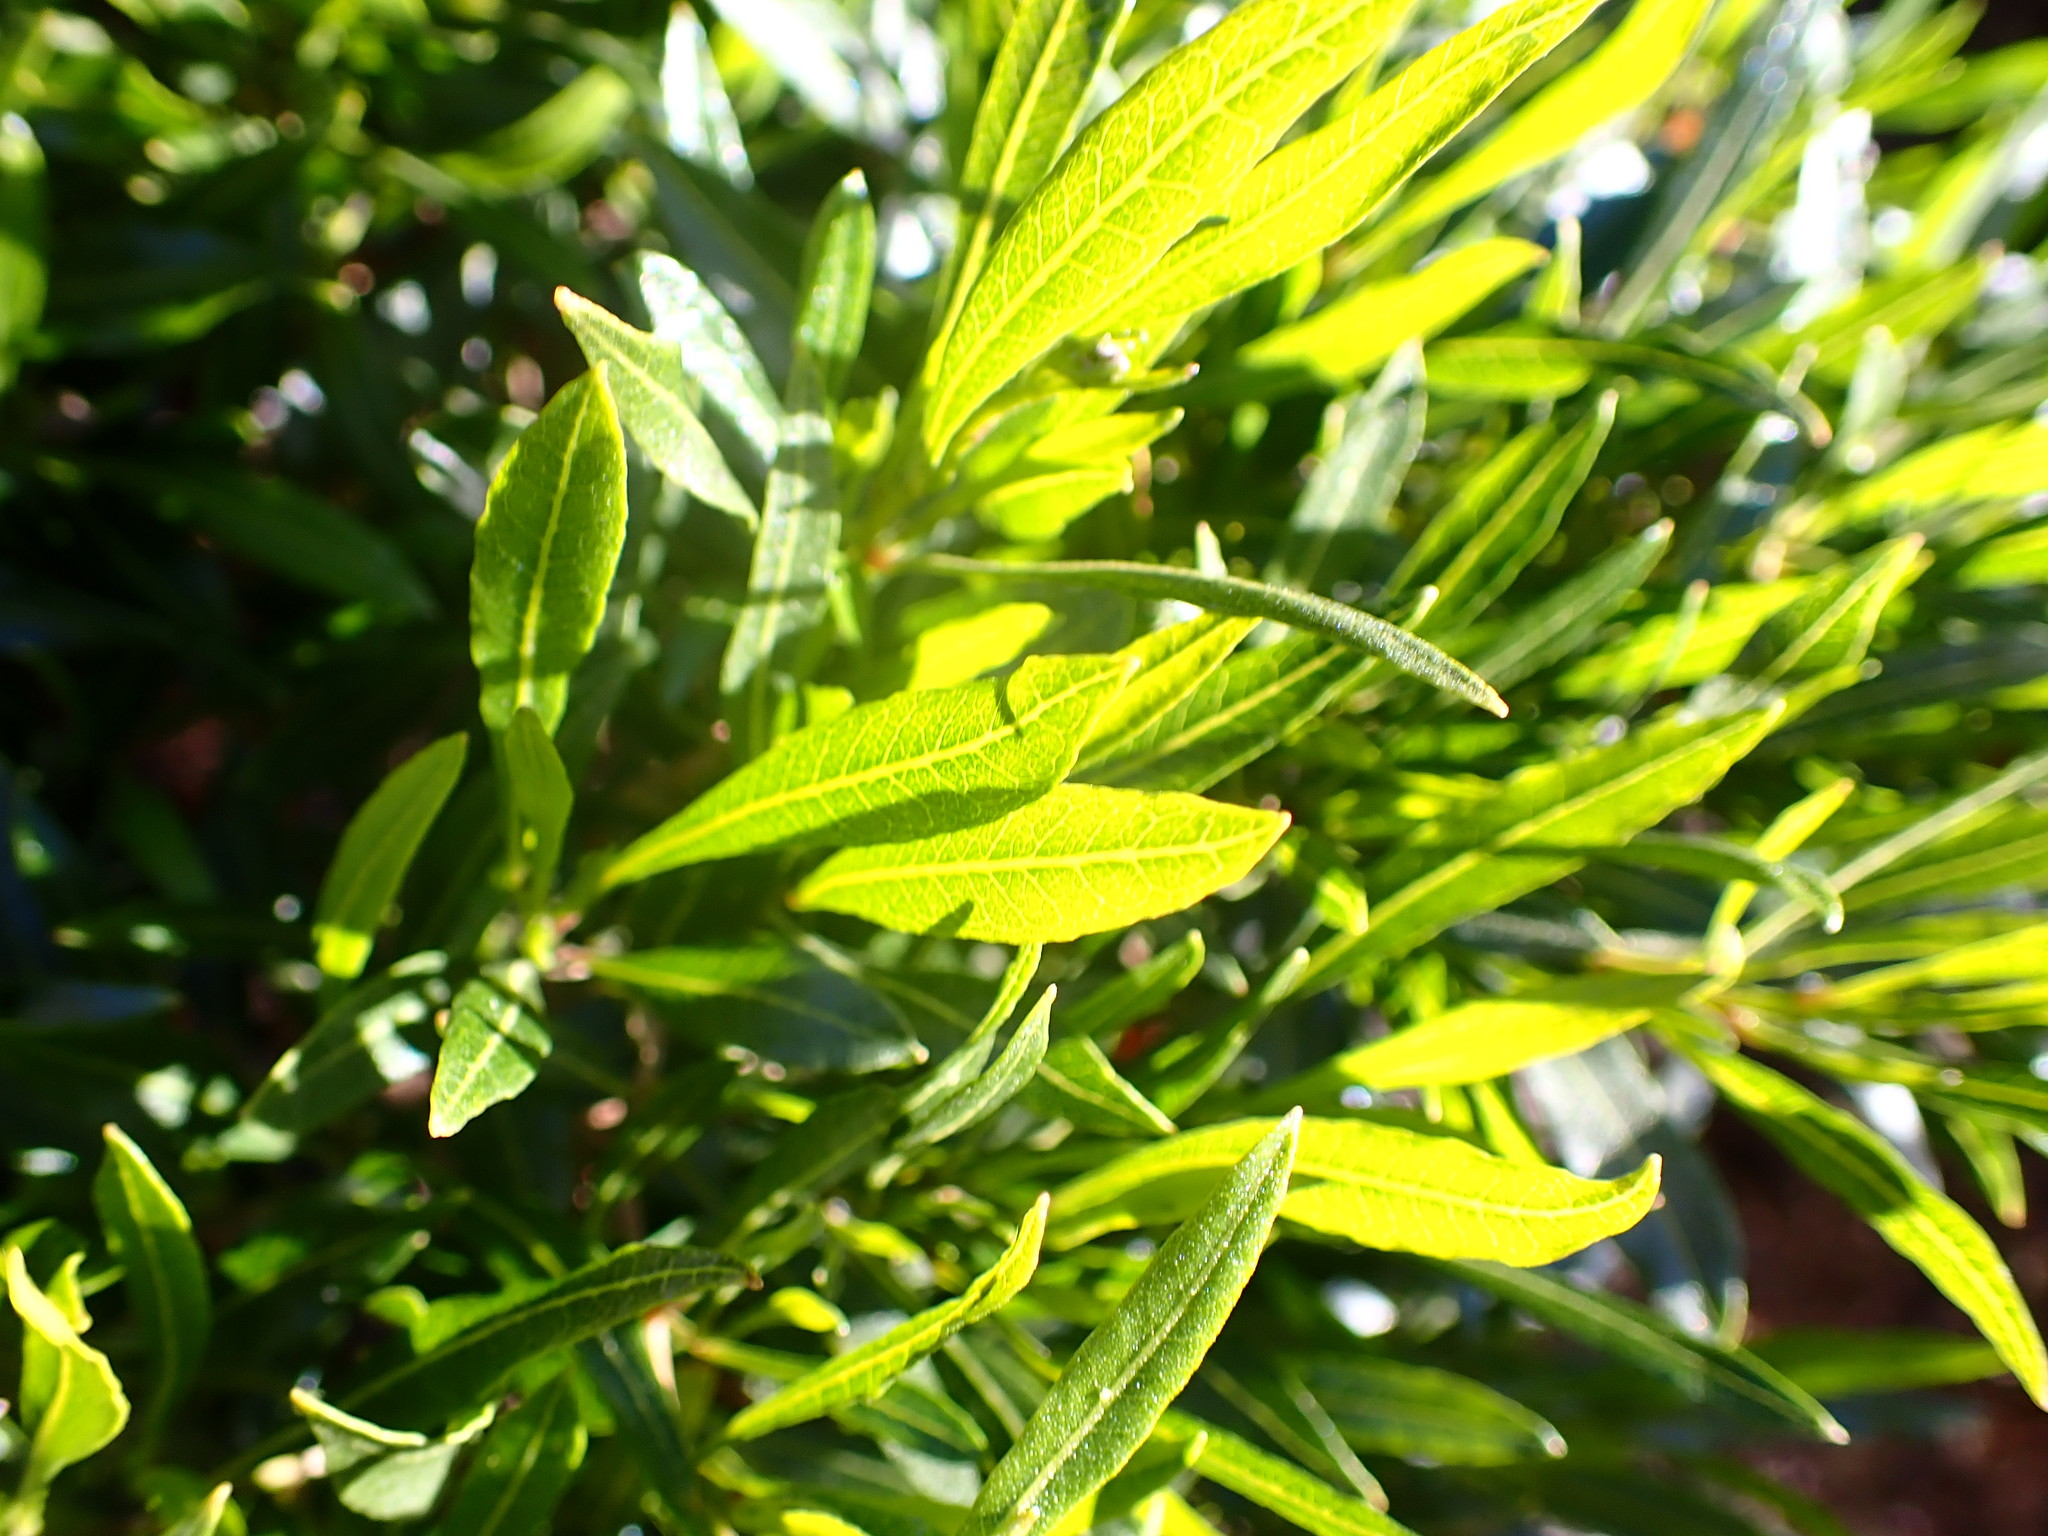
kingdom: Plantae
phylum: Tracheophyta
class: Magnoliopsida
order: Sapindales
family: Sapindaceae
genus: Dodonaea
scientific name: Dodonaea viscosa
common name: Hopbush
